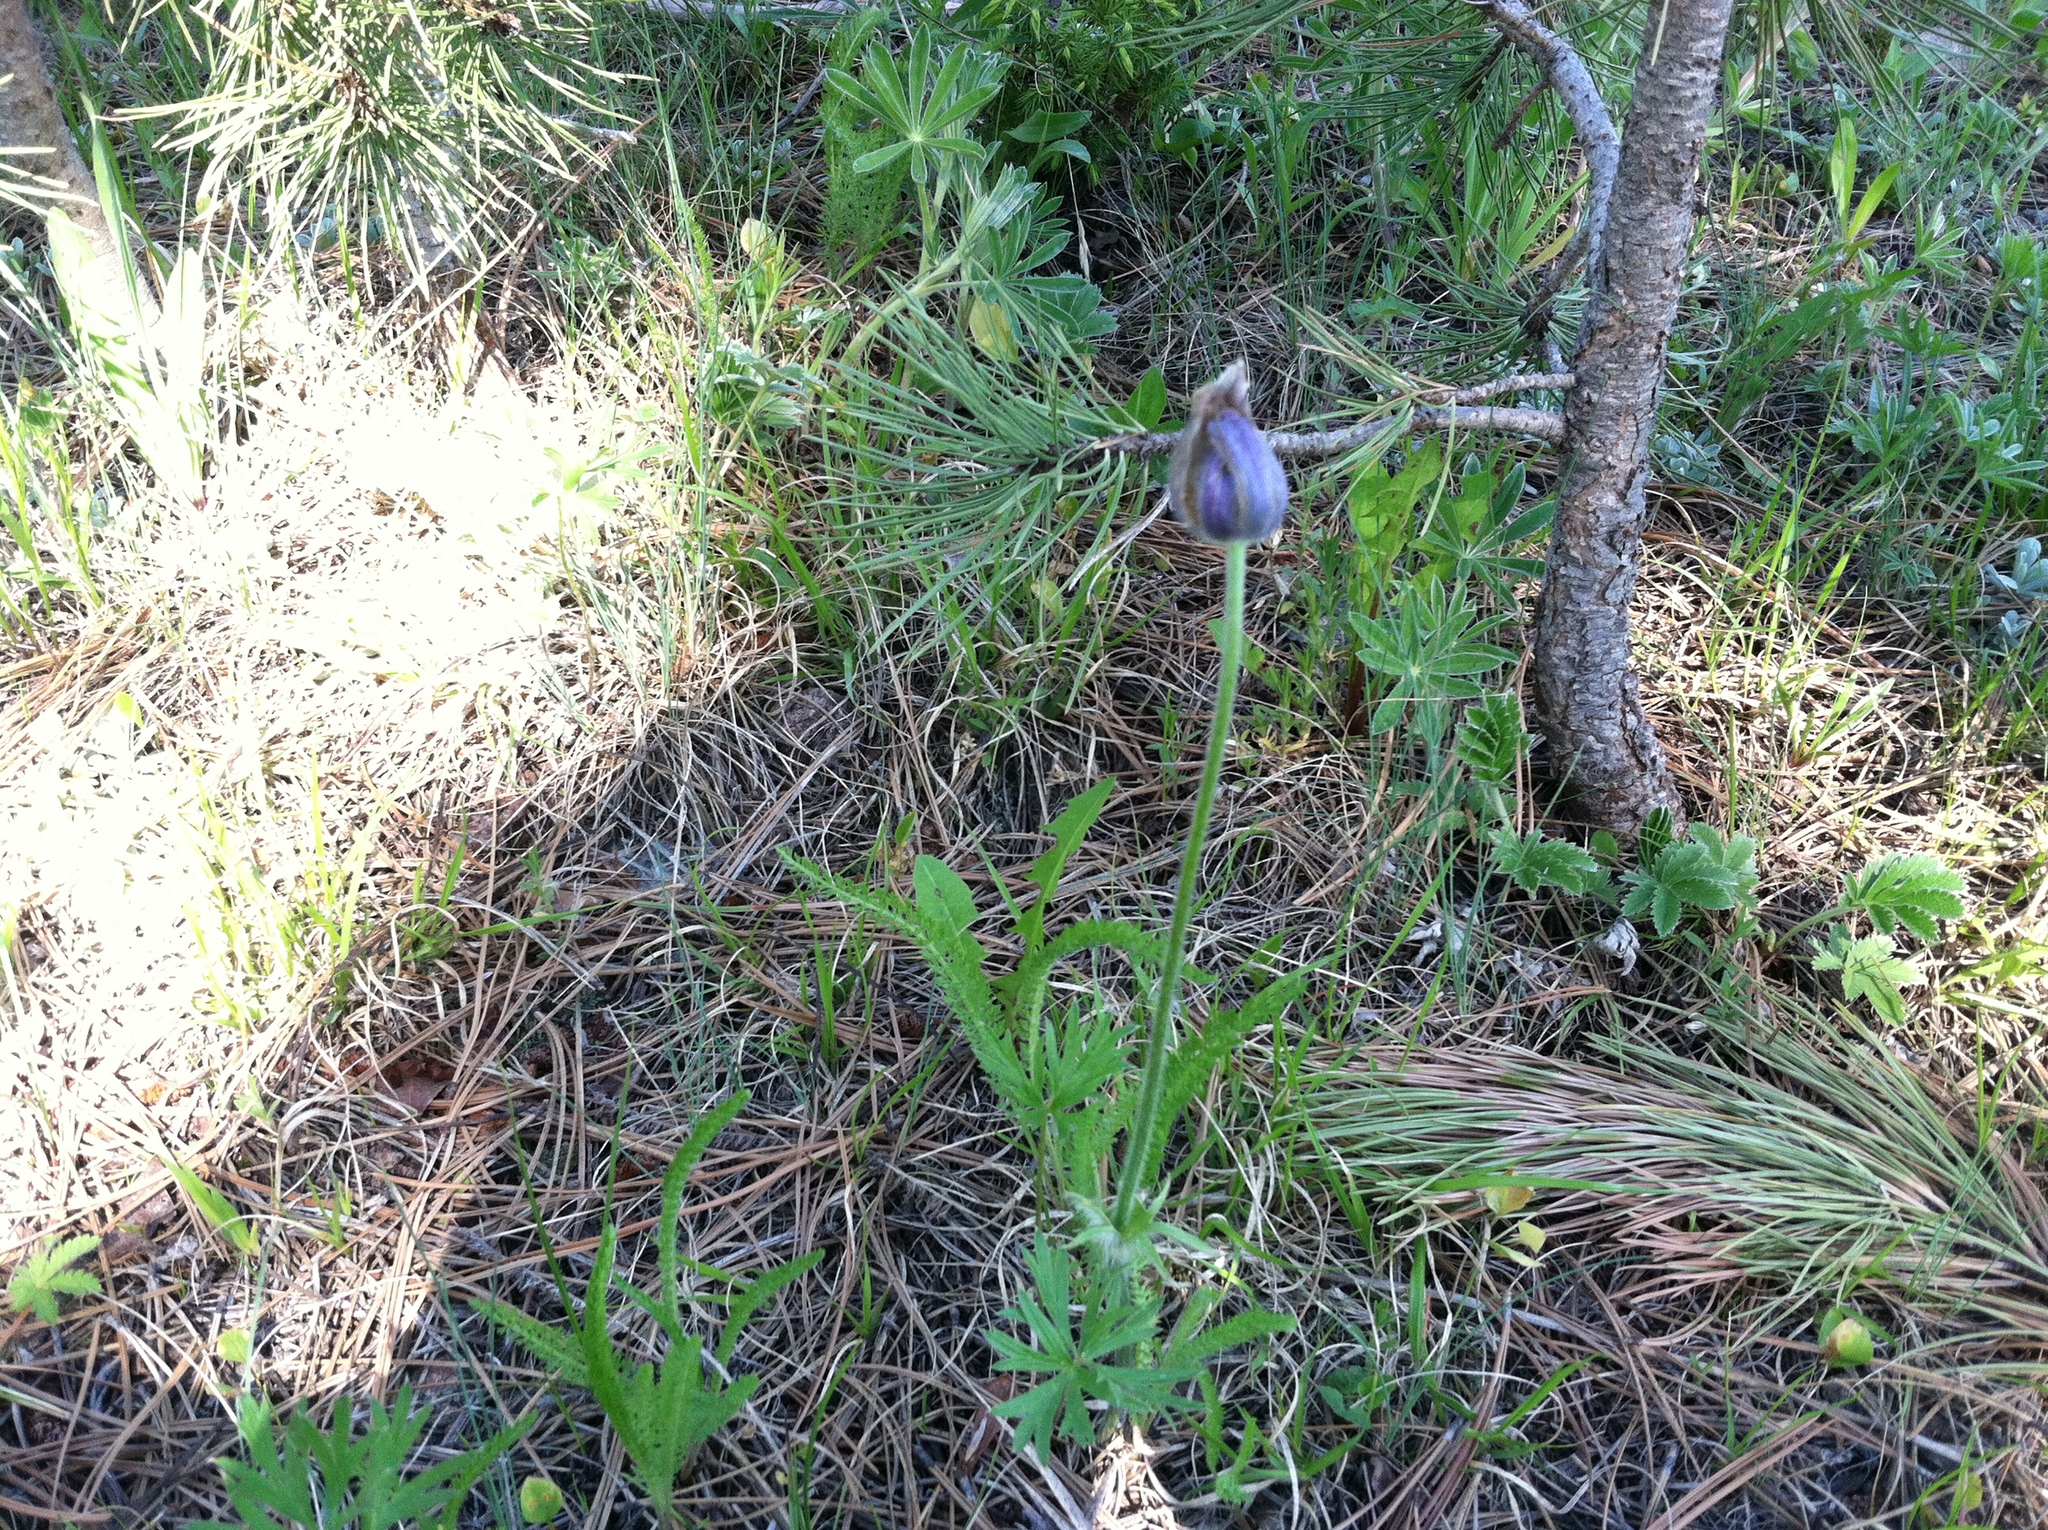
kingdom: Plantae
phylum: Tracheophyta
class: Magnoliopsida
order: Ranunculales
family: Ranunculaceae
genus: Pulsatilla
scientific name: Pulsatilla nuttalliana
